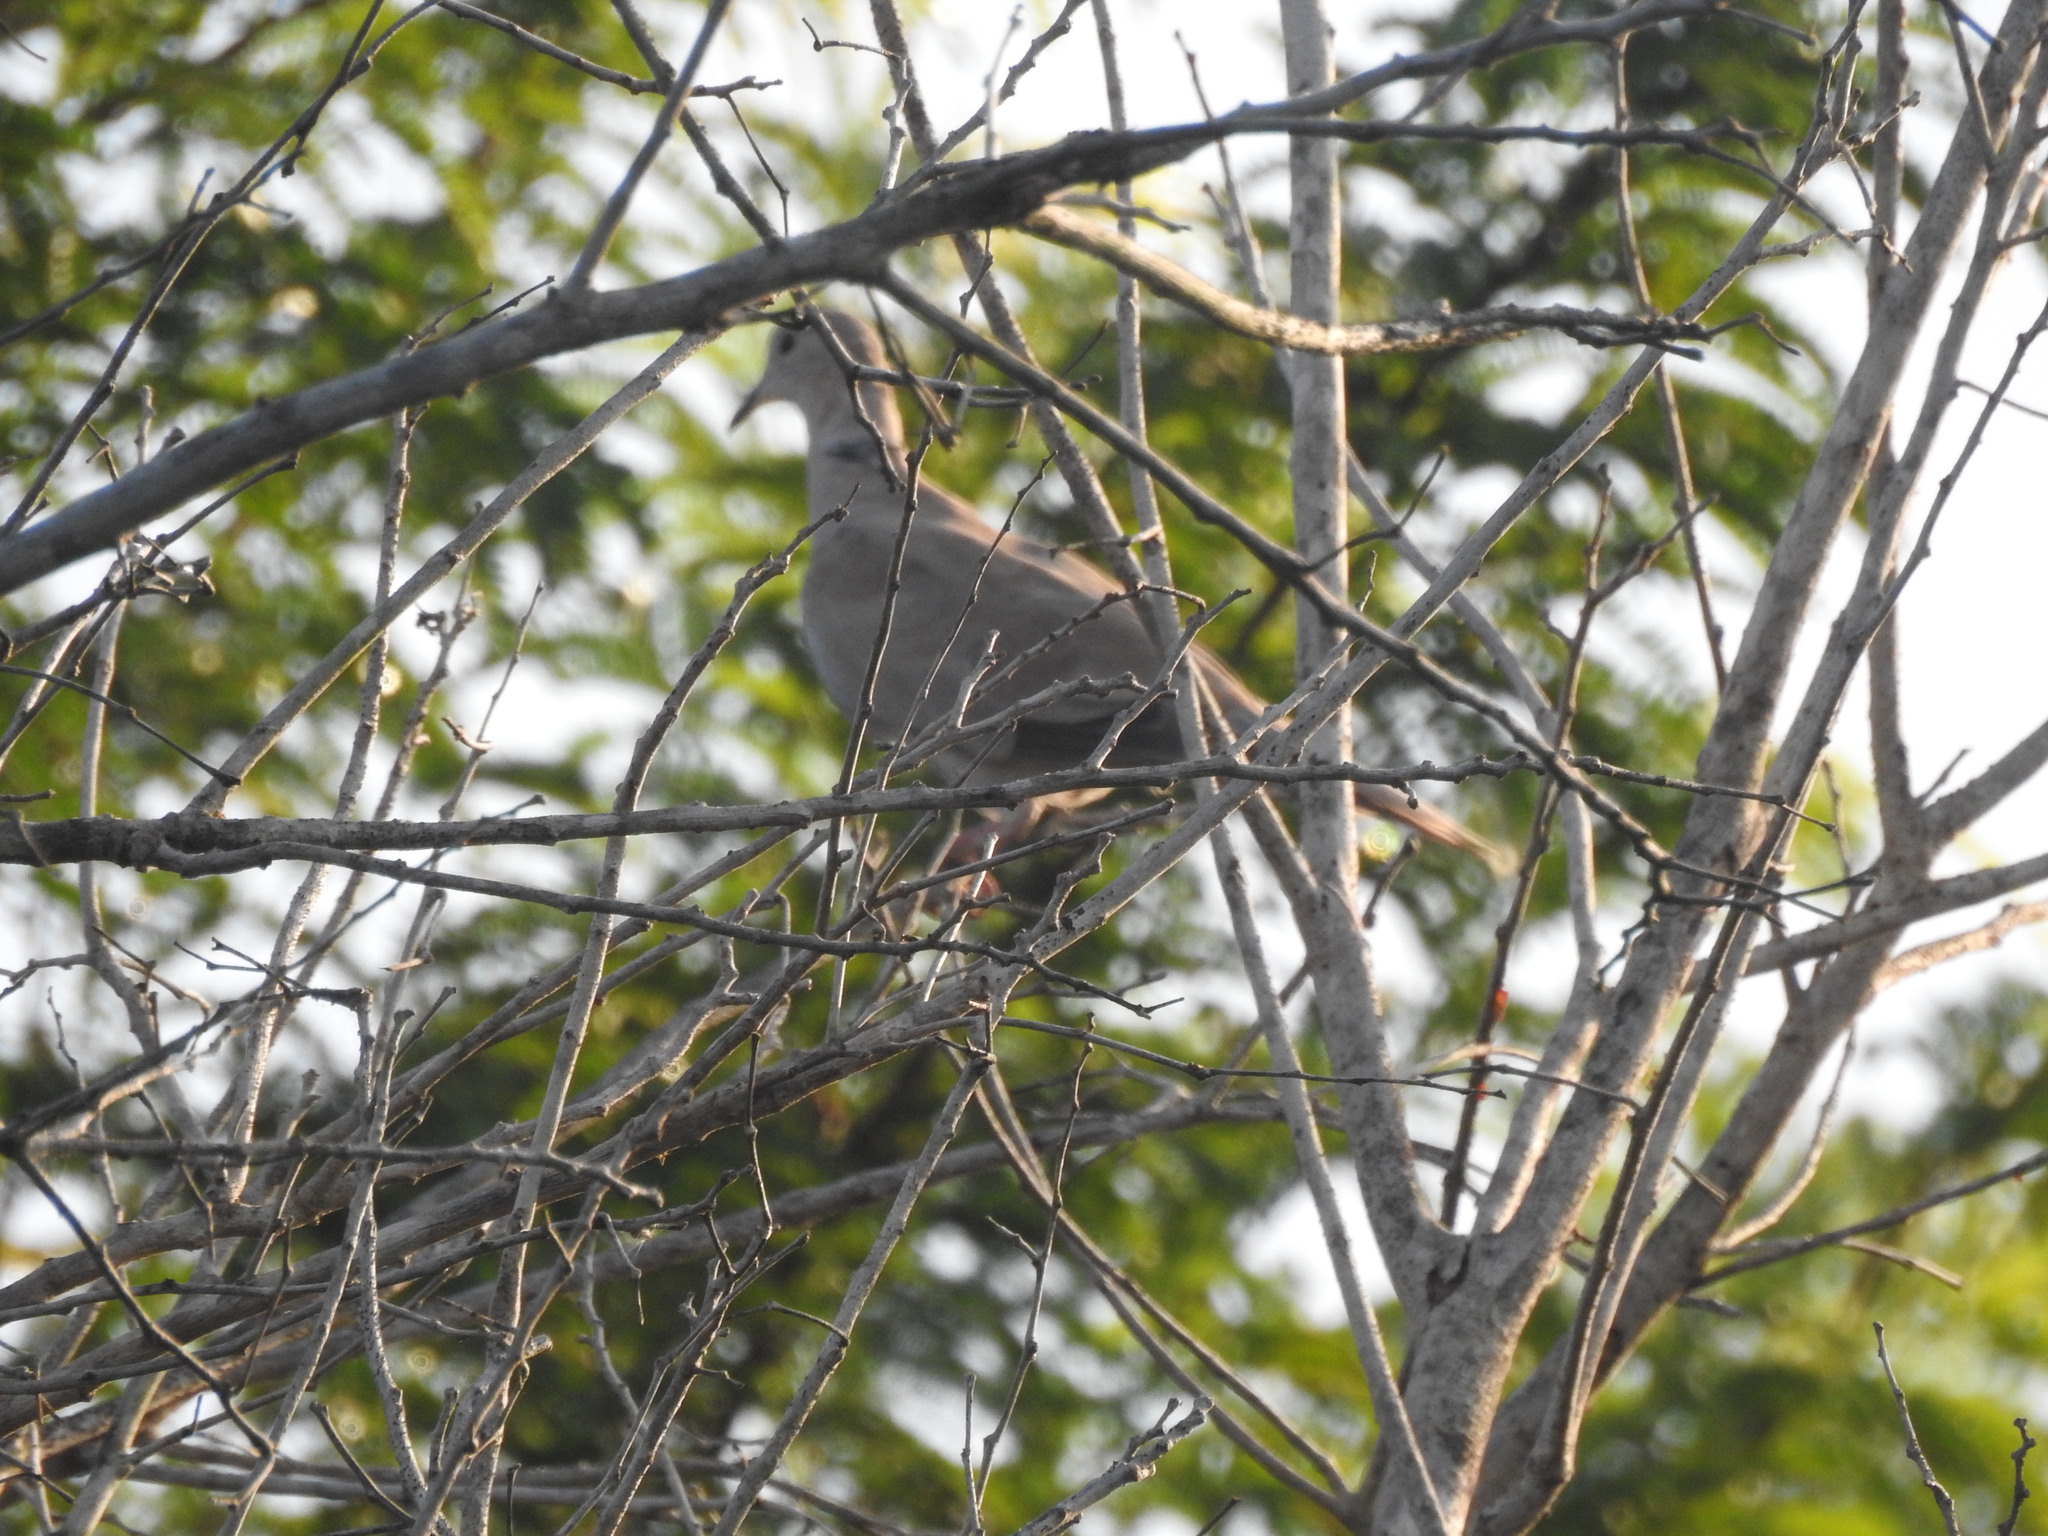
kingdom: Animalia
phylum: Chordata
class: Aves
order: Columbiformes
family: Columbidae
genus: Streptopelia
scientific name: Streptopelia decaocto
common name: Eurasian collared dove
